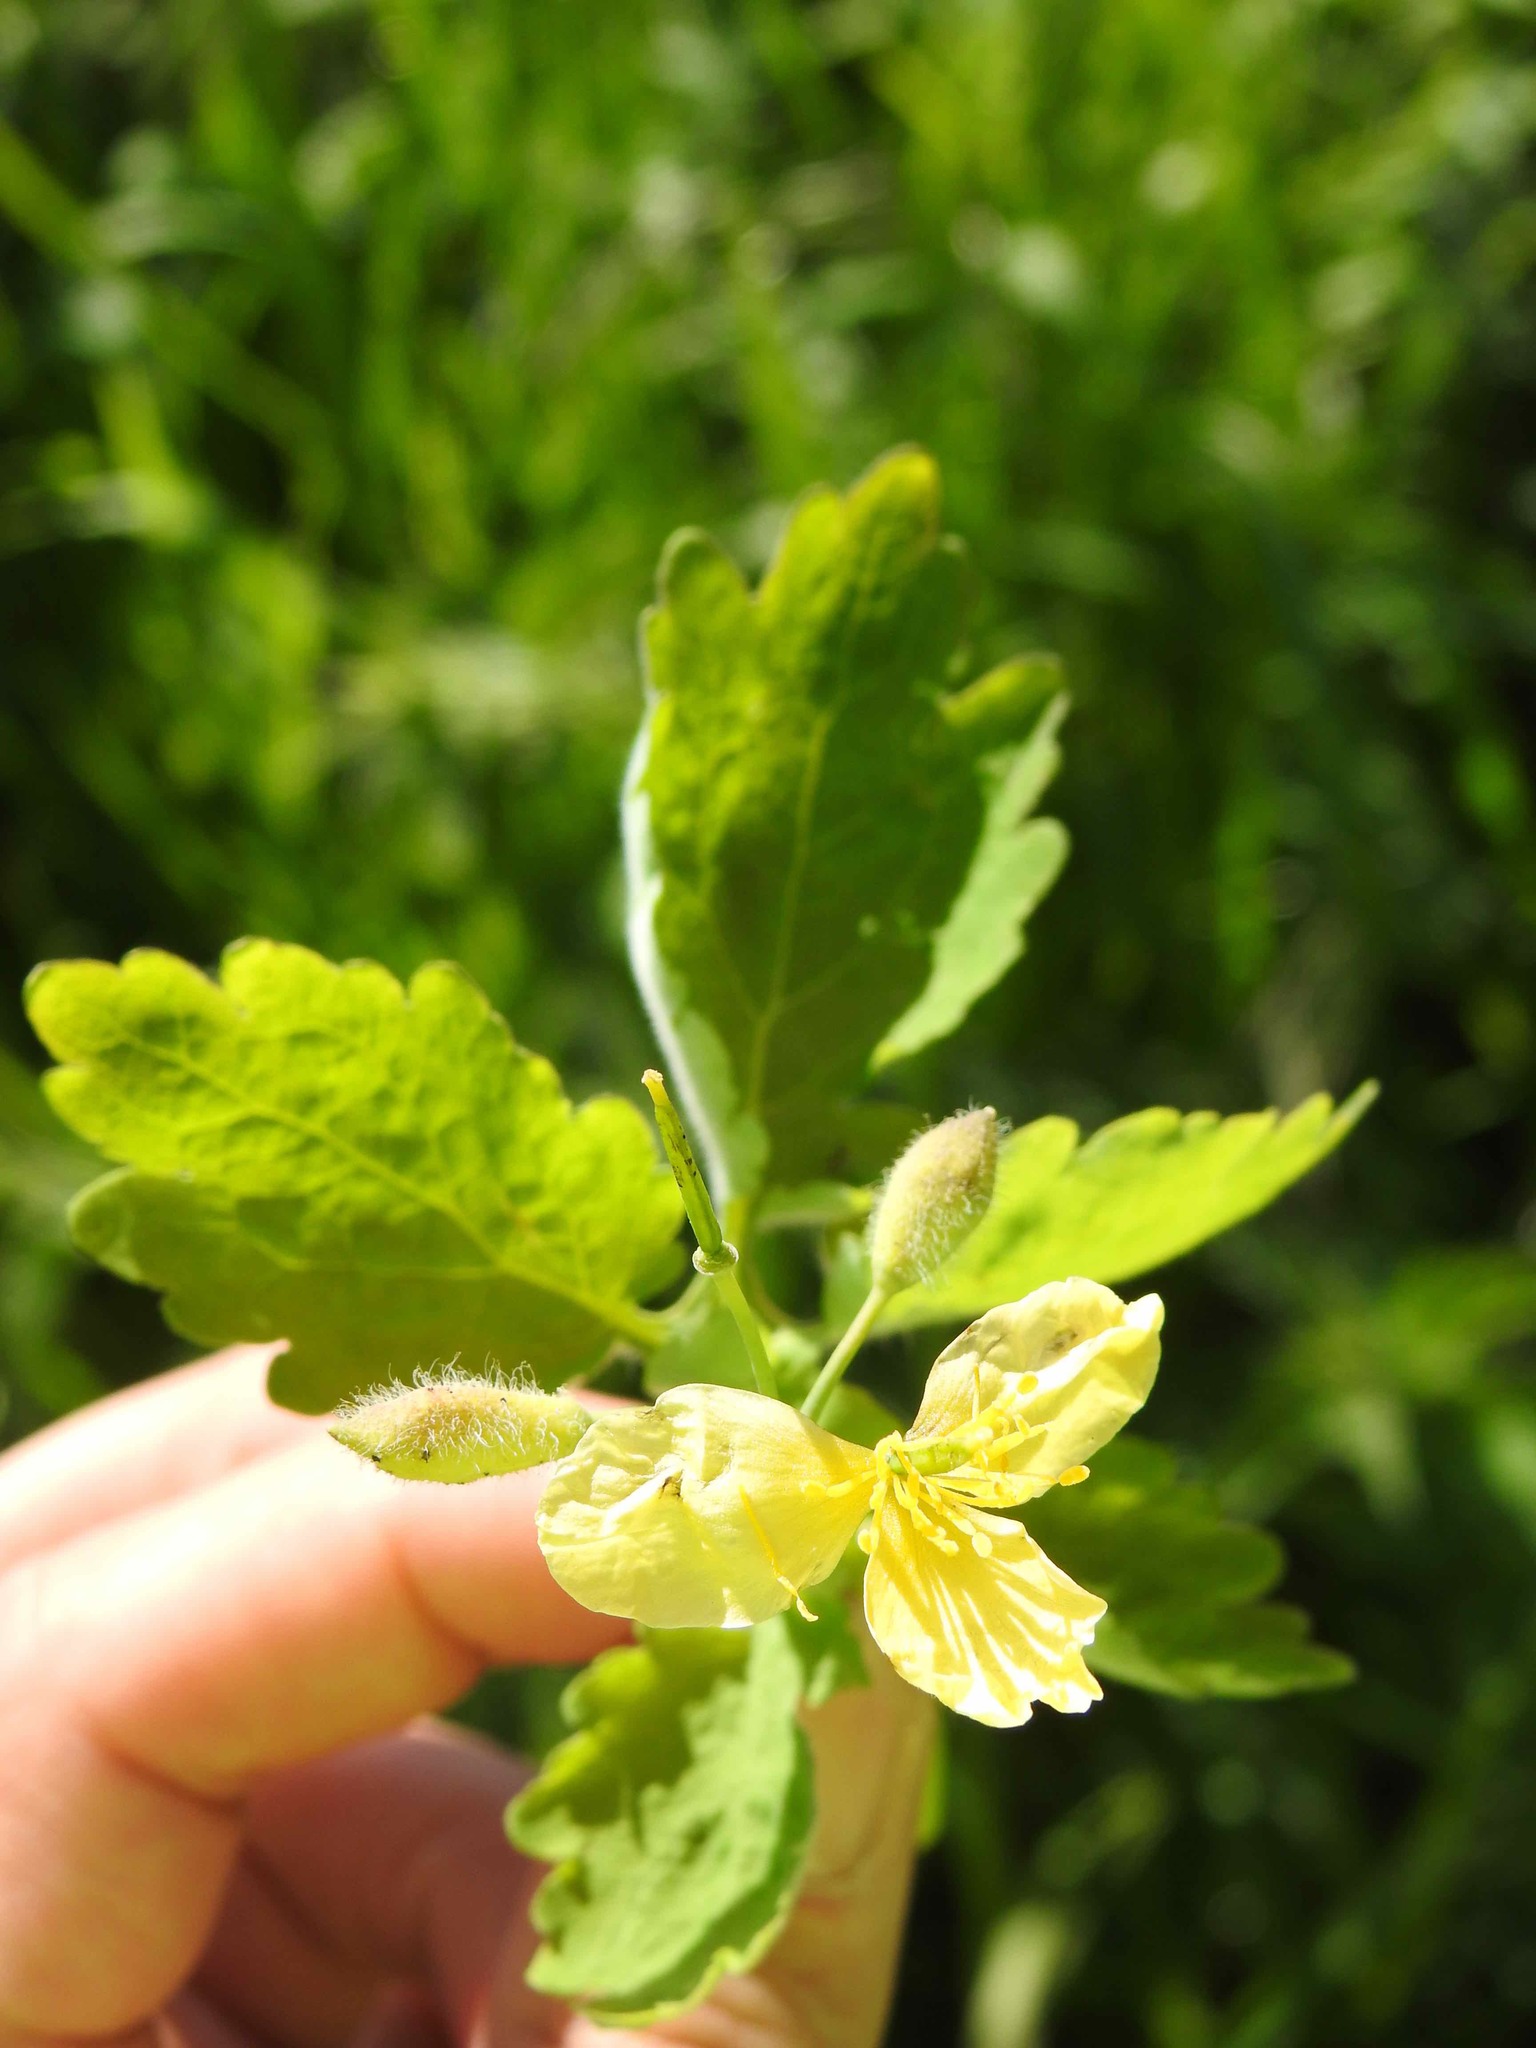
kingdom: Plantae
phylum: Tracheophyta
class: Magnoliopsida
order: Ranunculales
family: Papaveraceae
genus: Chelidonium
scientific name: Chelidonium majus
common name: Greater celandine
